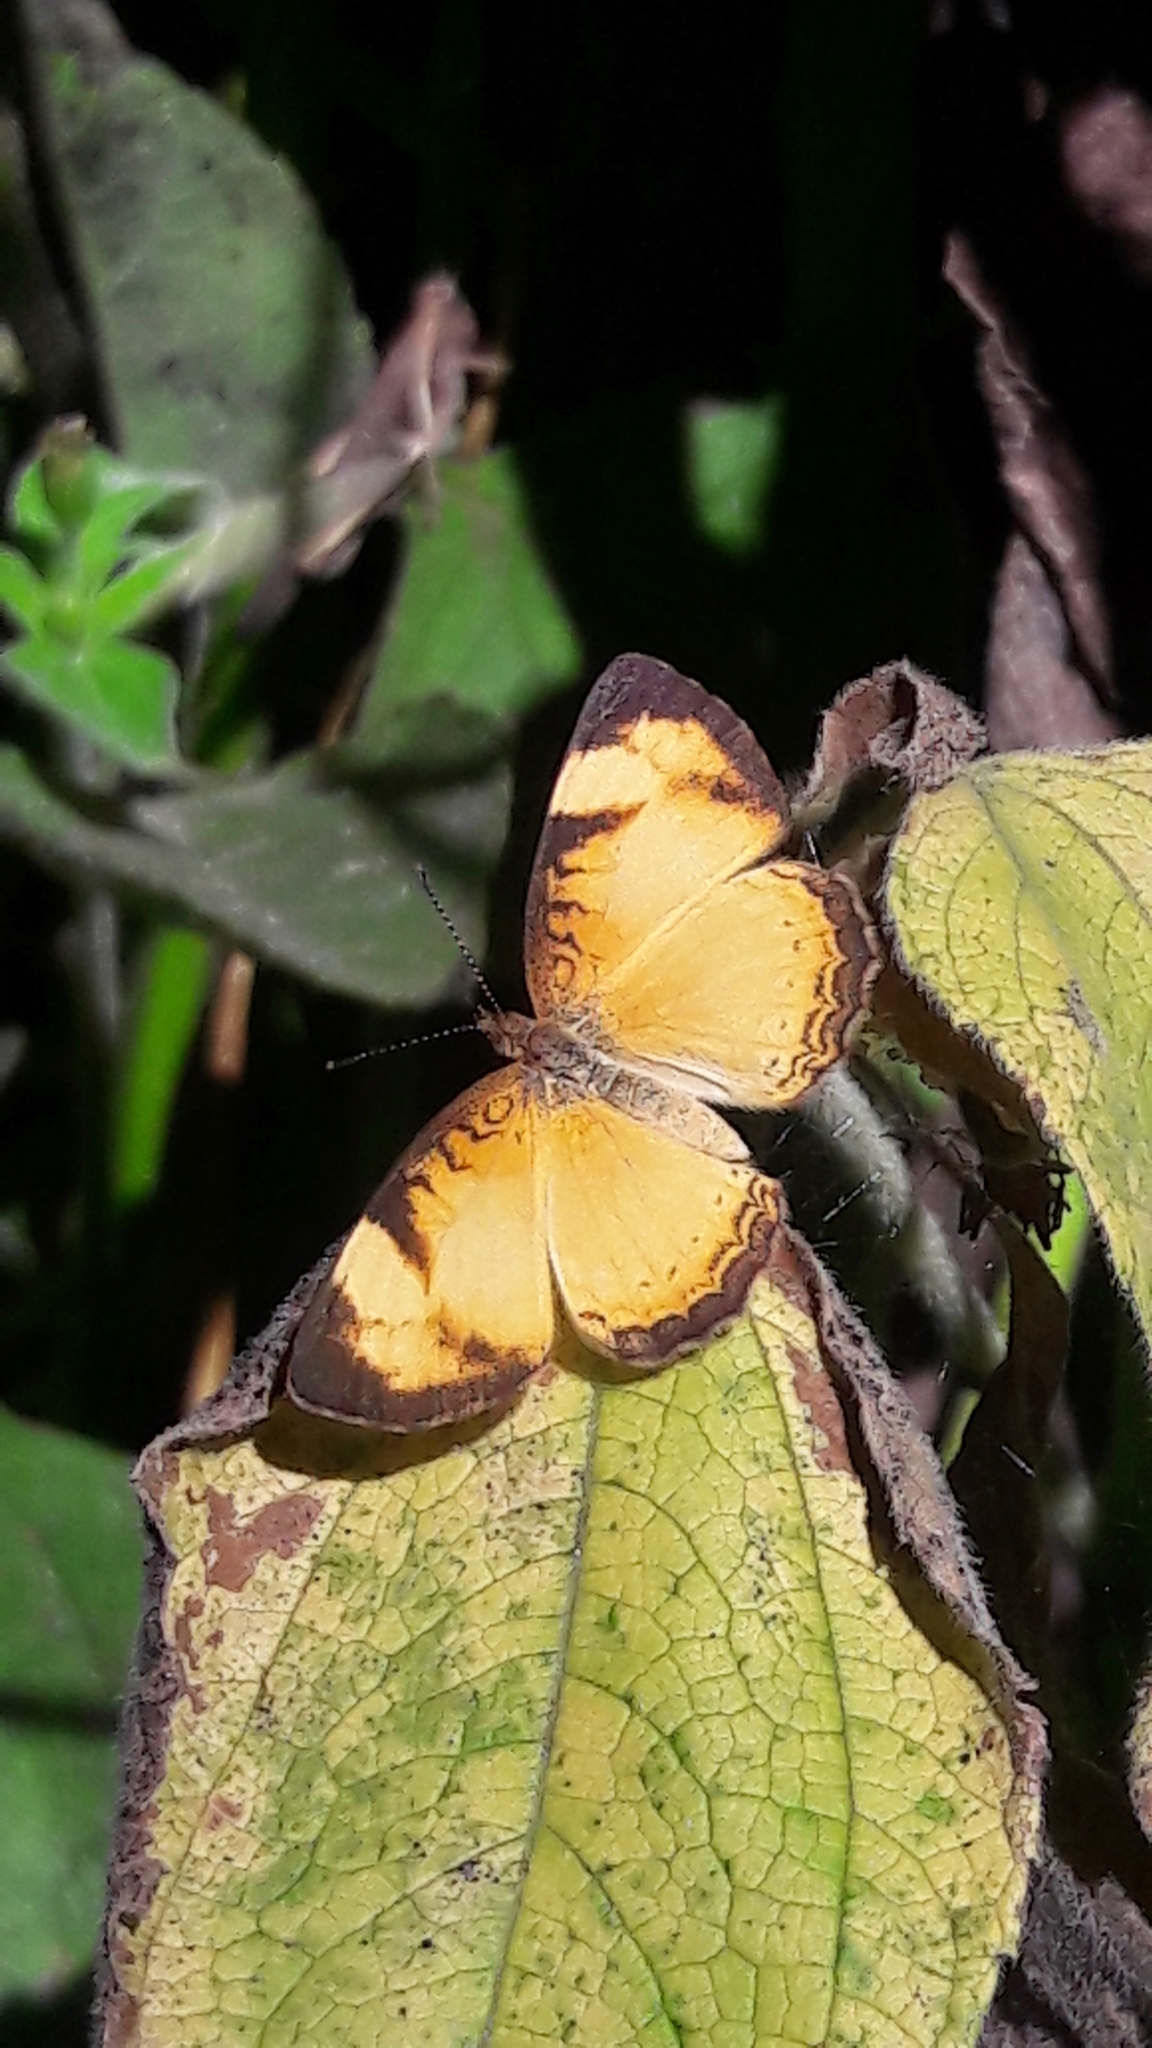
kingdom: Animalia
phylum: Arthropoda
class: Insecta
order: Lepidoptera
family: Nymphalidae
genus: Tegosa
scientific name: Tegosa claudina
